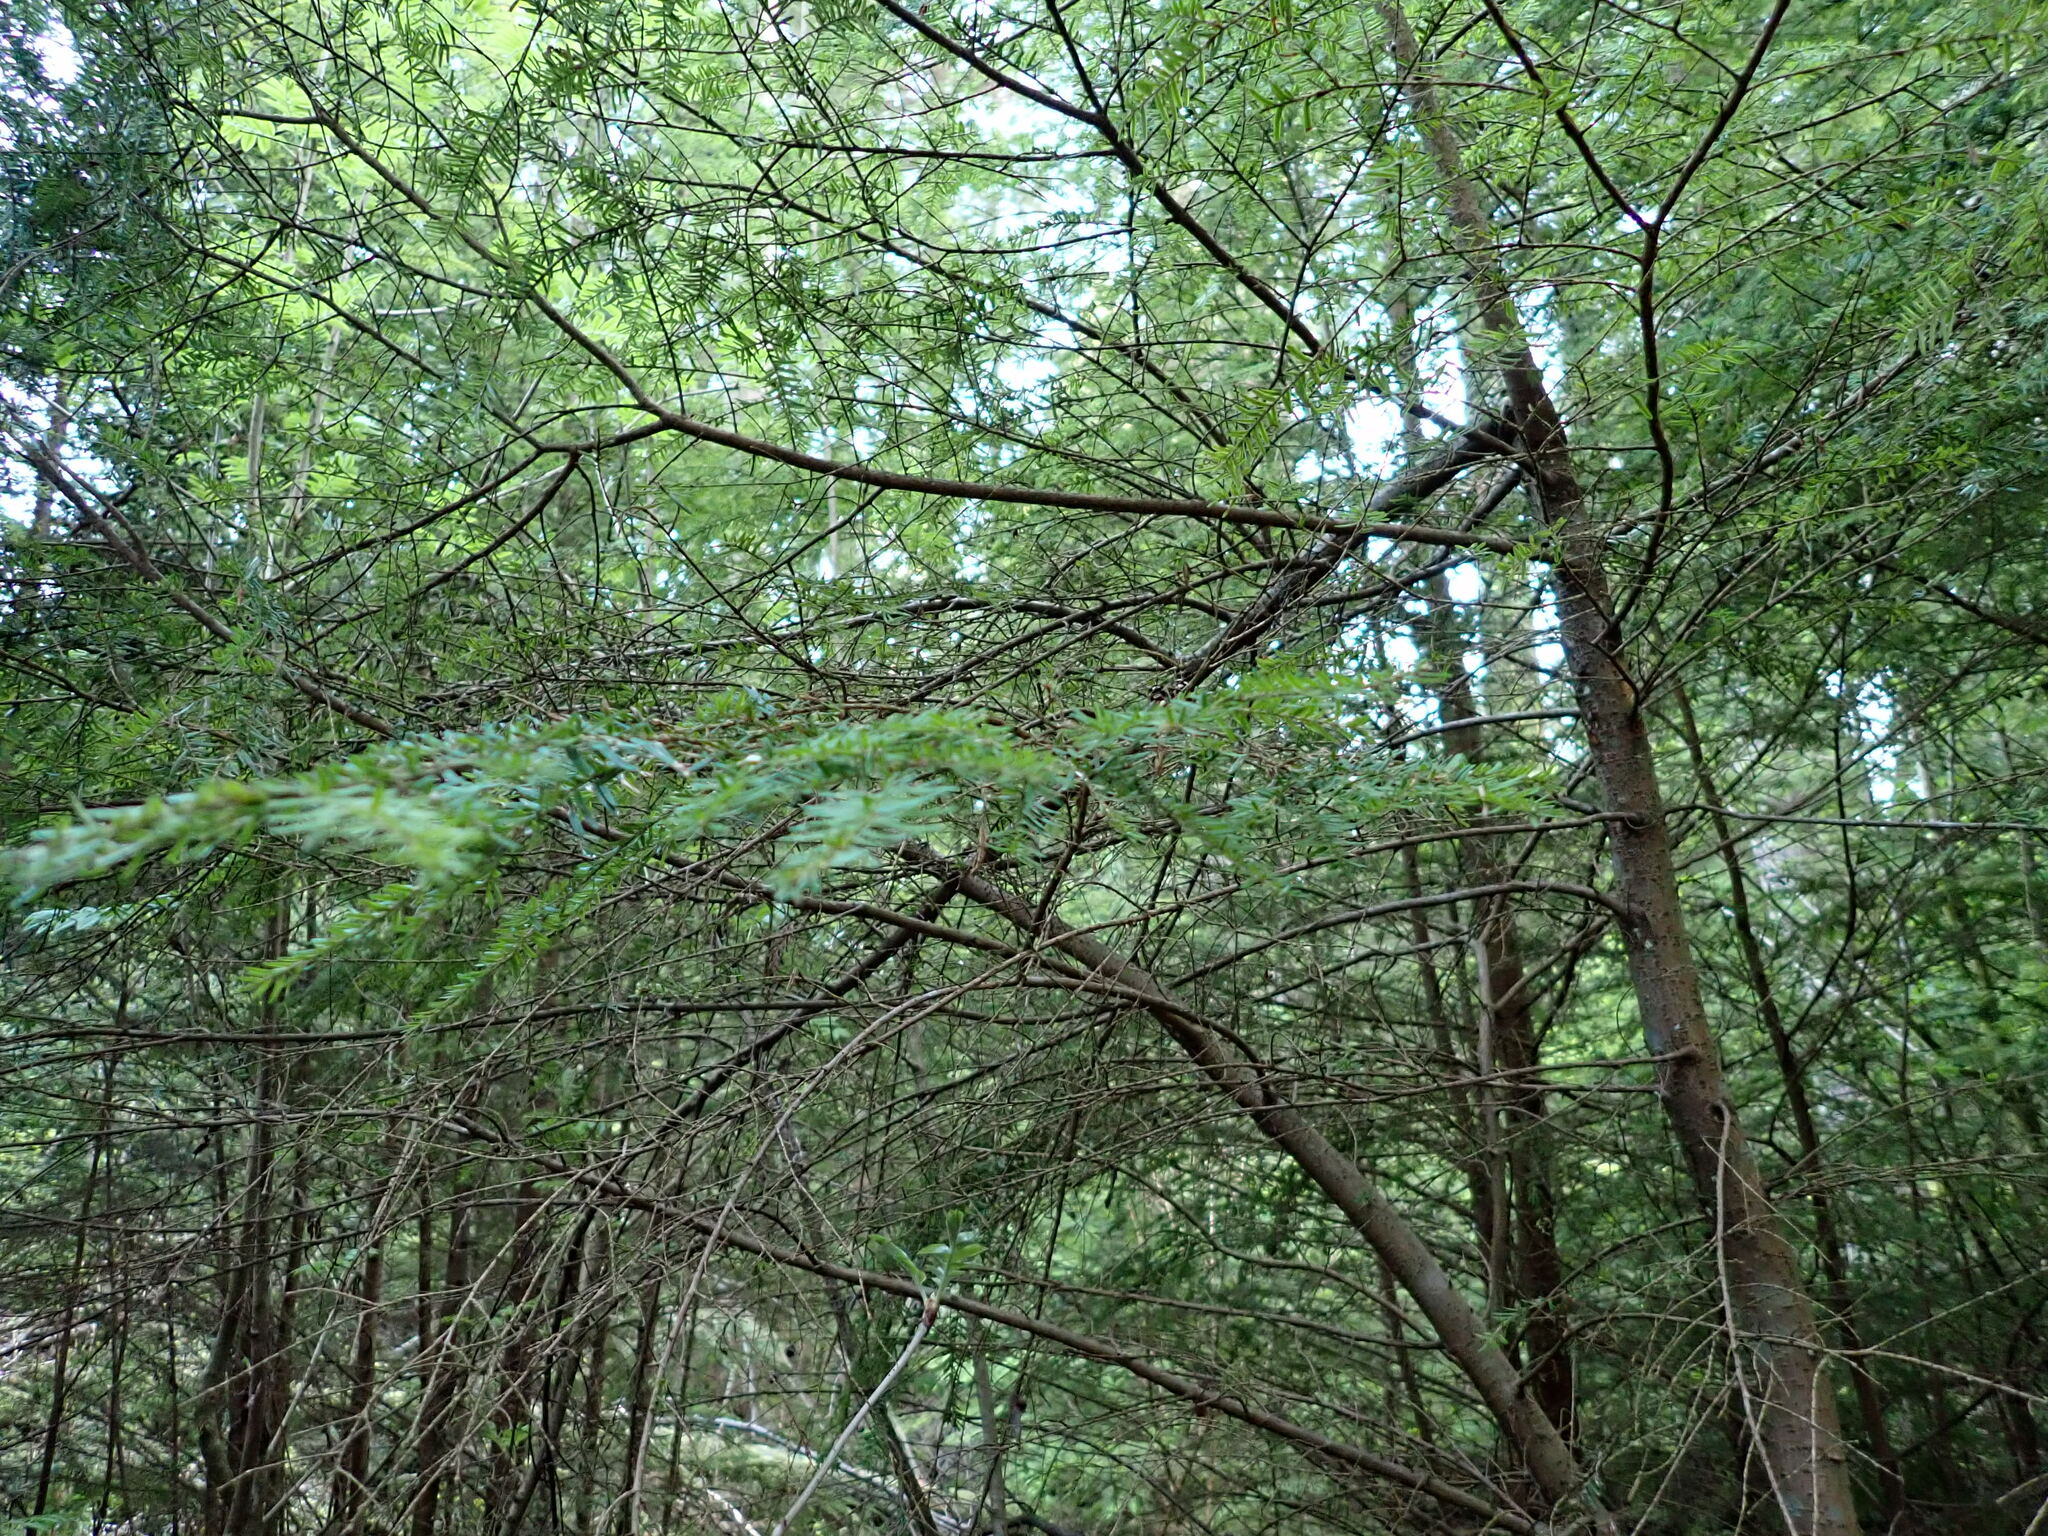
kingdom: Plantae
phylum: Tracheophyta
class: Pinopsida
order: Pinales
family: Pinaceae
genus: Tsuga
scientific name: Tsuga heterophylla
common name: Western hemlock
